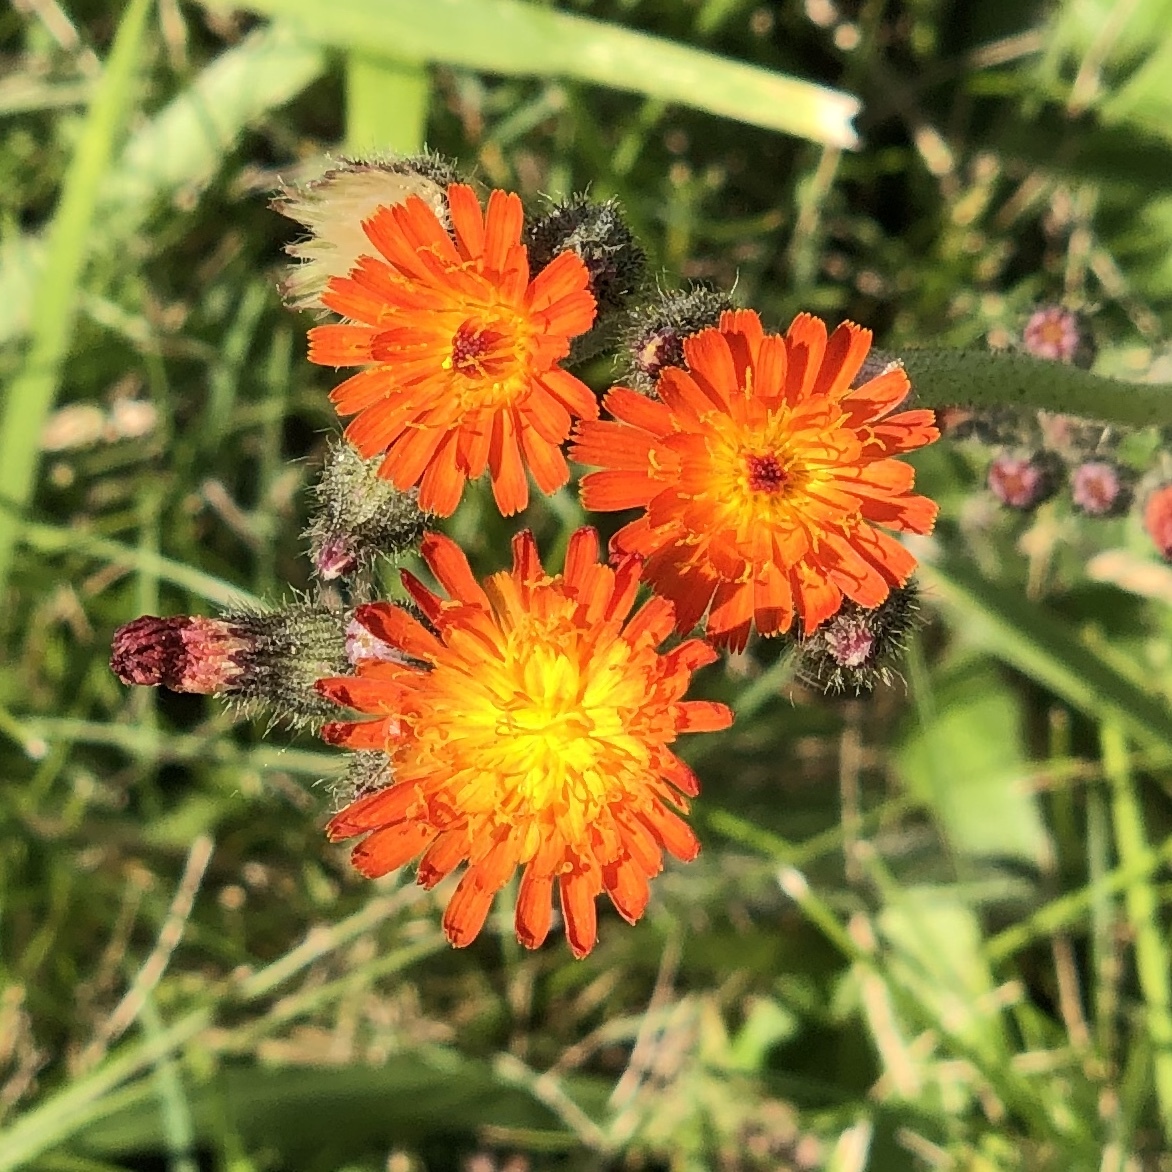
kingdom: Plantae
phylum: Tracheophyta
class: Magnoliopsida
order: Asterales
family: Asteraceae
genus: Pilosella
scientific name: Pilosella aurantiaca
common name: Fox-and-cubs
